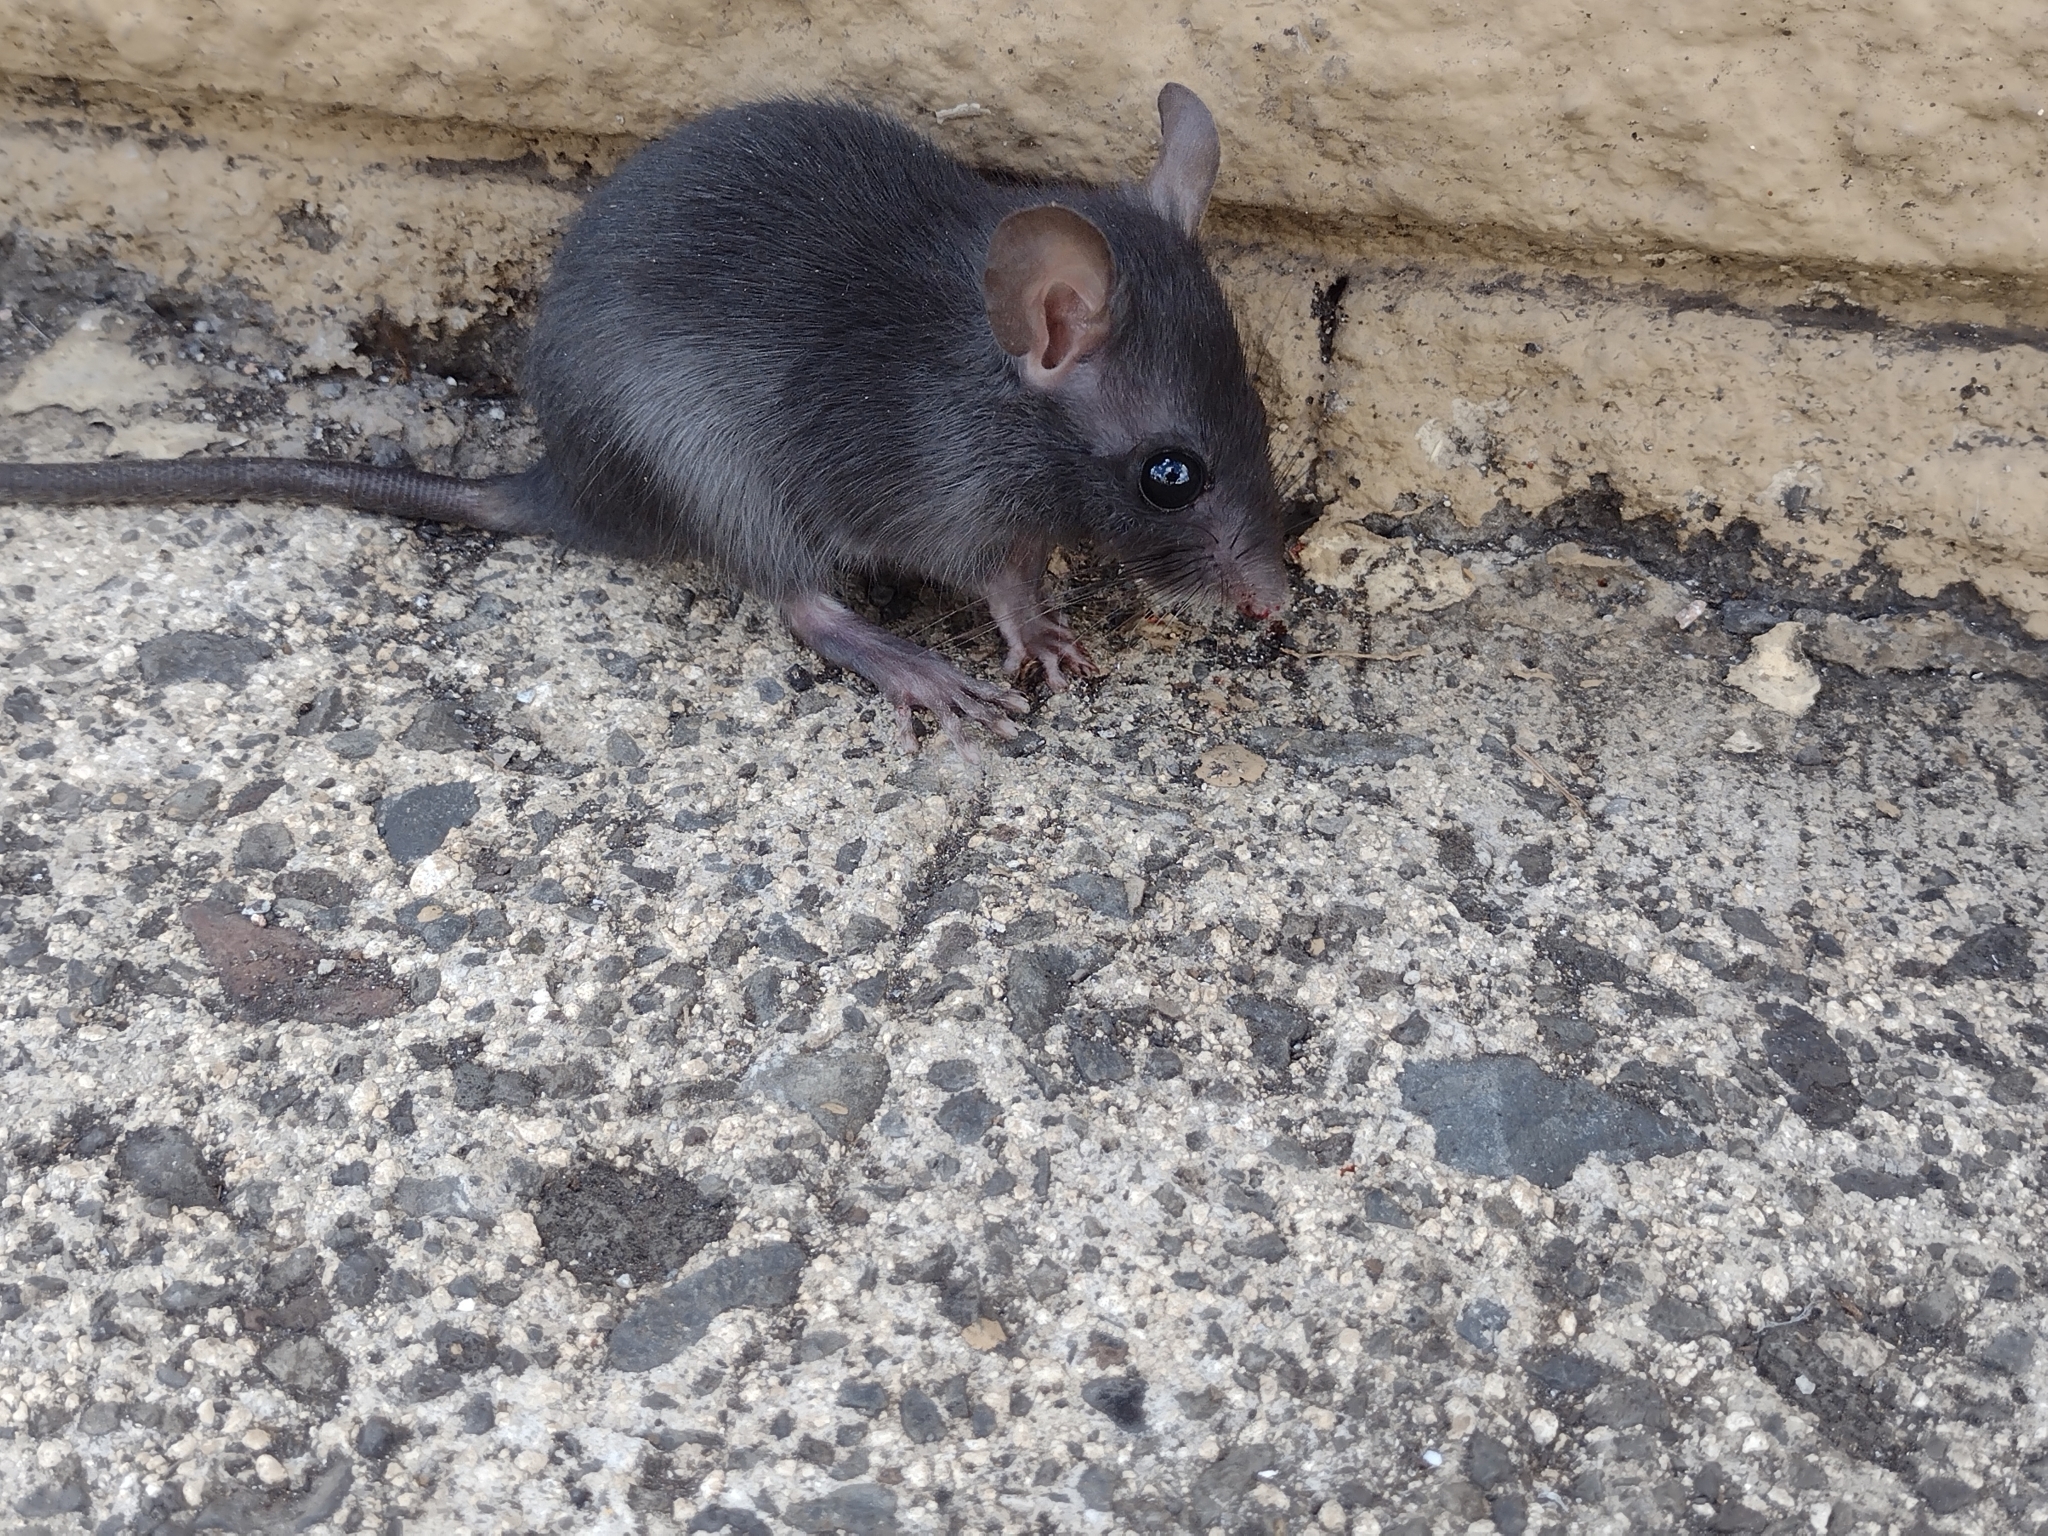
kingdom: Animalia
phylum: Chordata
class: Mammalia
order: Rodentia
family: Muridae
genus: Mus
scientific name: Mus musculus
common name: House mouse
